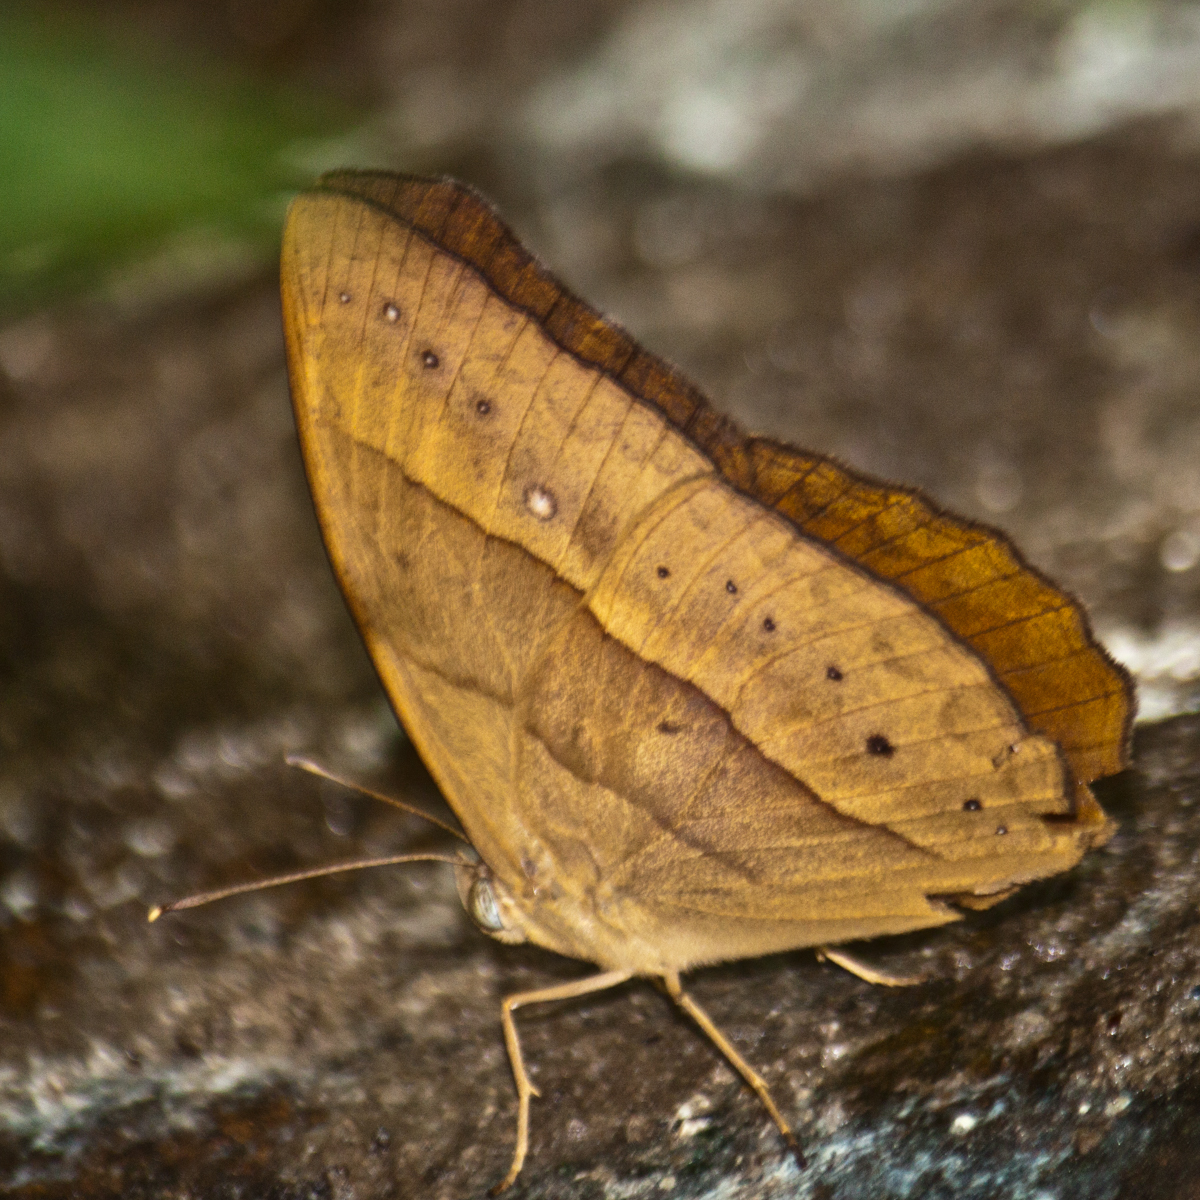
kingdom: Animalia
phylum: Arthropoda
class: Insecta
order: Lepidoptera
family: Nymphalidae
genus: Mycalesis
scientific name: Mycalesis mnasicles
